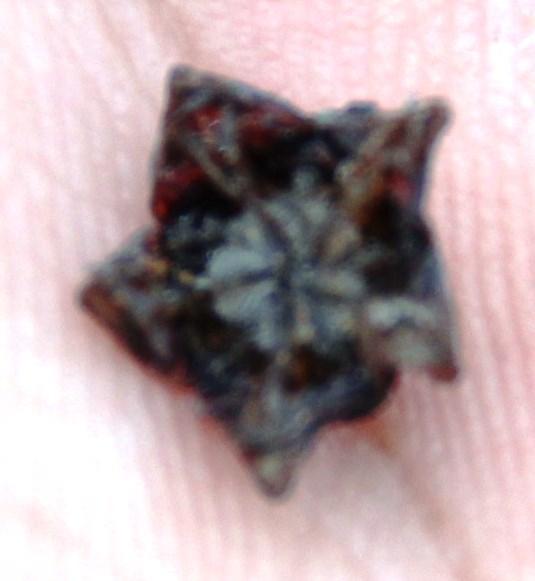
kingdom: Plantae
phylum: Tracheophyta
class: Magnoliopsida
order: Caryophyllales
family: Aizoaceae
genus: Dracophilus
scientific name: Dracophilus Chasmatophyllum musculinum
